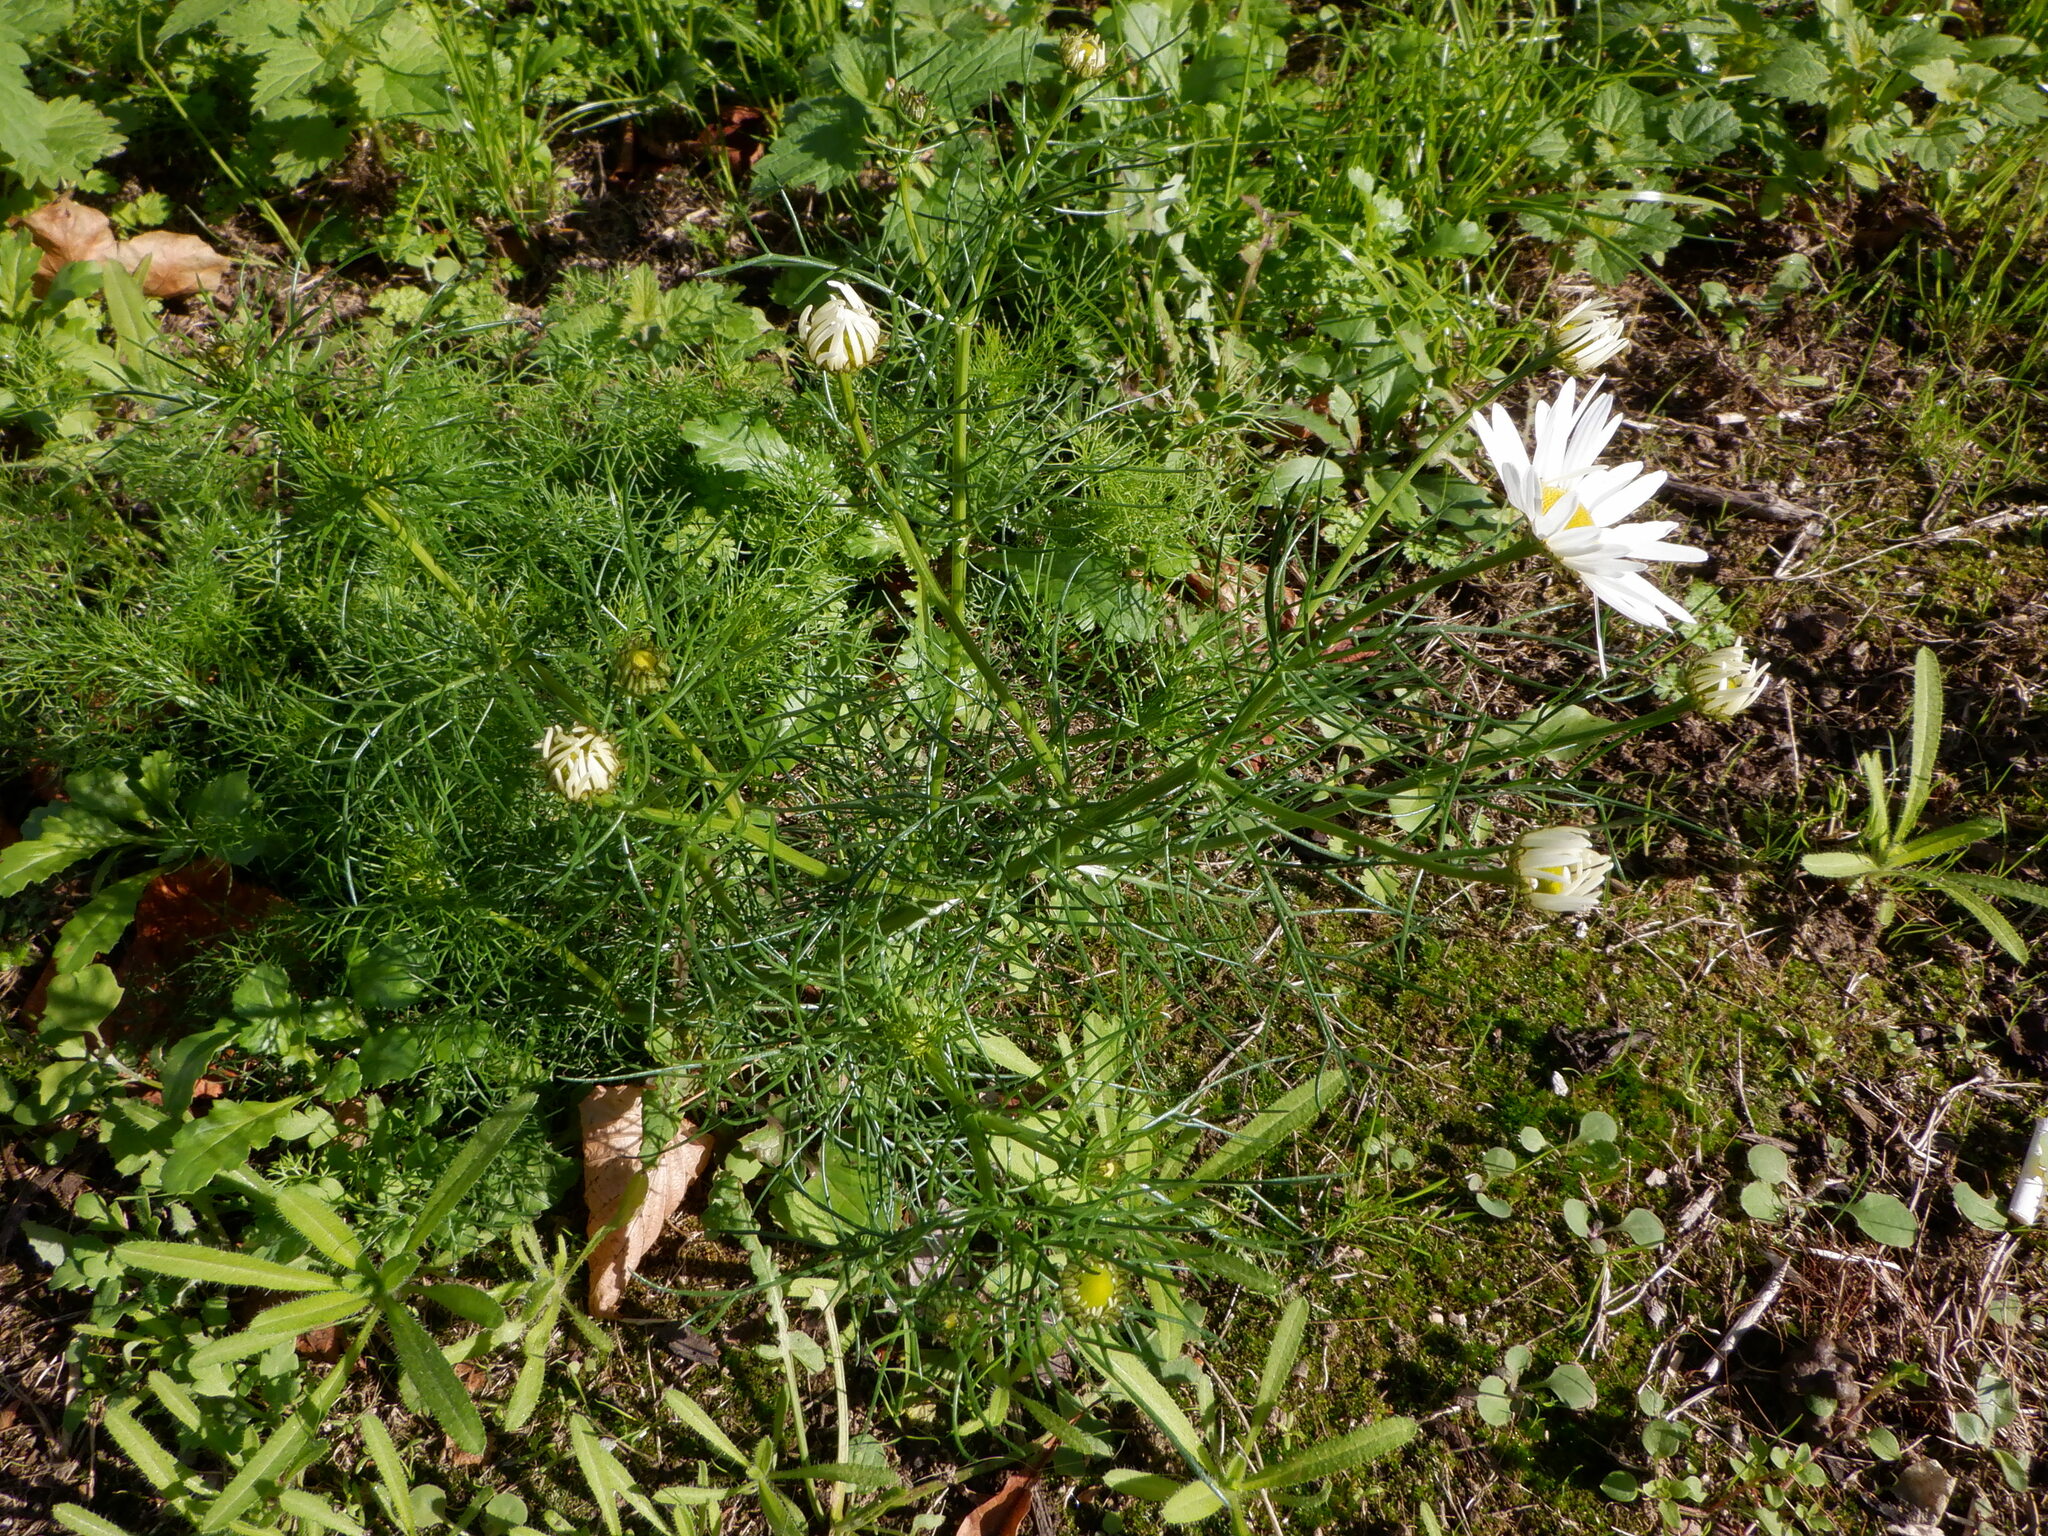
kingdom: Plantae
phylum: Tracheophyta
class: Magnoliopsida
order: Asterales
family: Asteraceae
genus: Tripleurospermum
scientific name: Tripleurospermum inodorum
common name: Scentless mayweed
